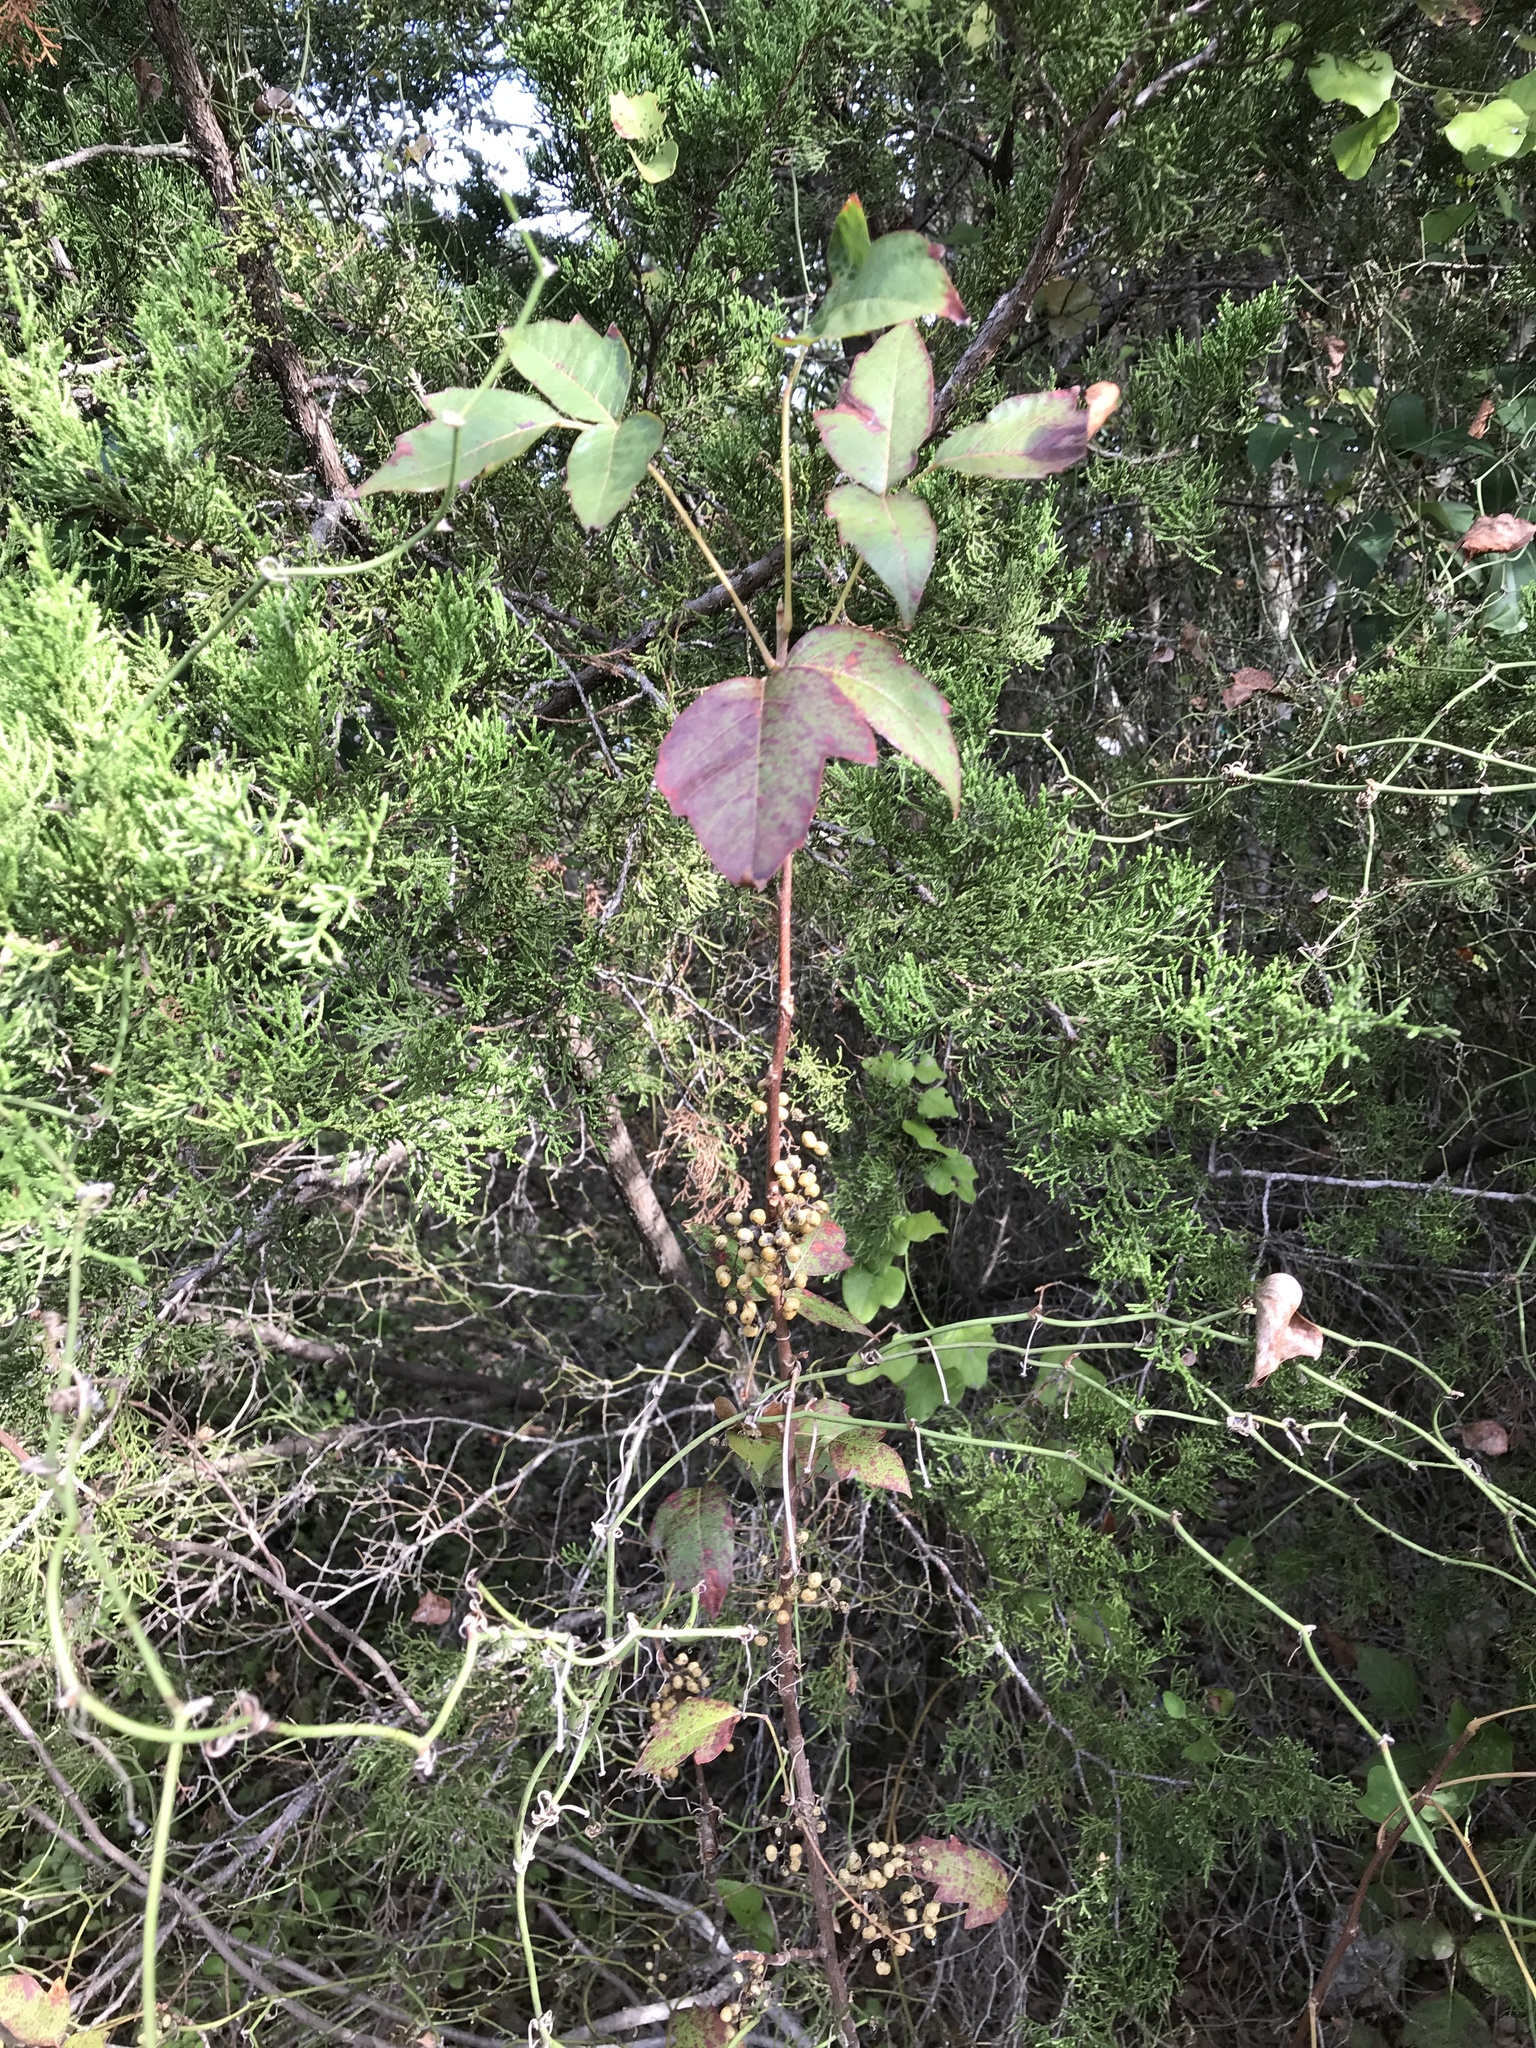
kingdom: Plantae
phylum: Tracheophyta
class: Magnoliopsida
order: Sapindales
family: Anacardiaceae
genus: Toxicodendron
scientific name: Toxicodendron radicans
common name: Poison ivy
